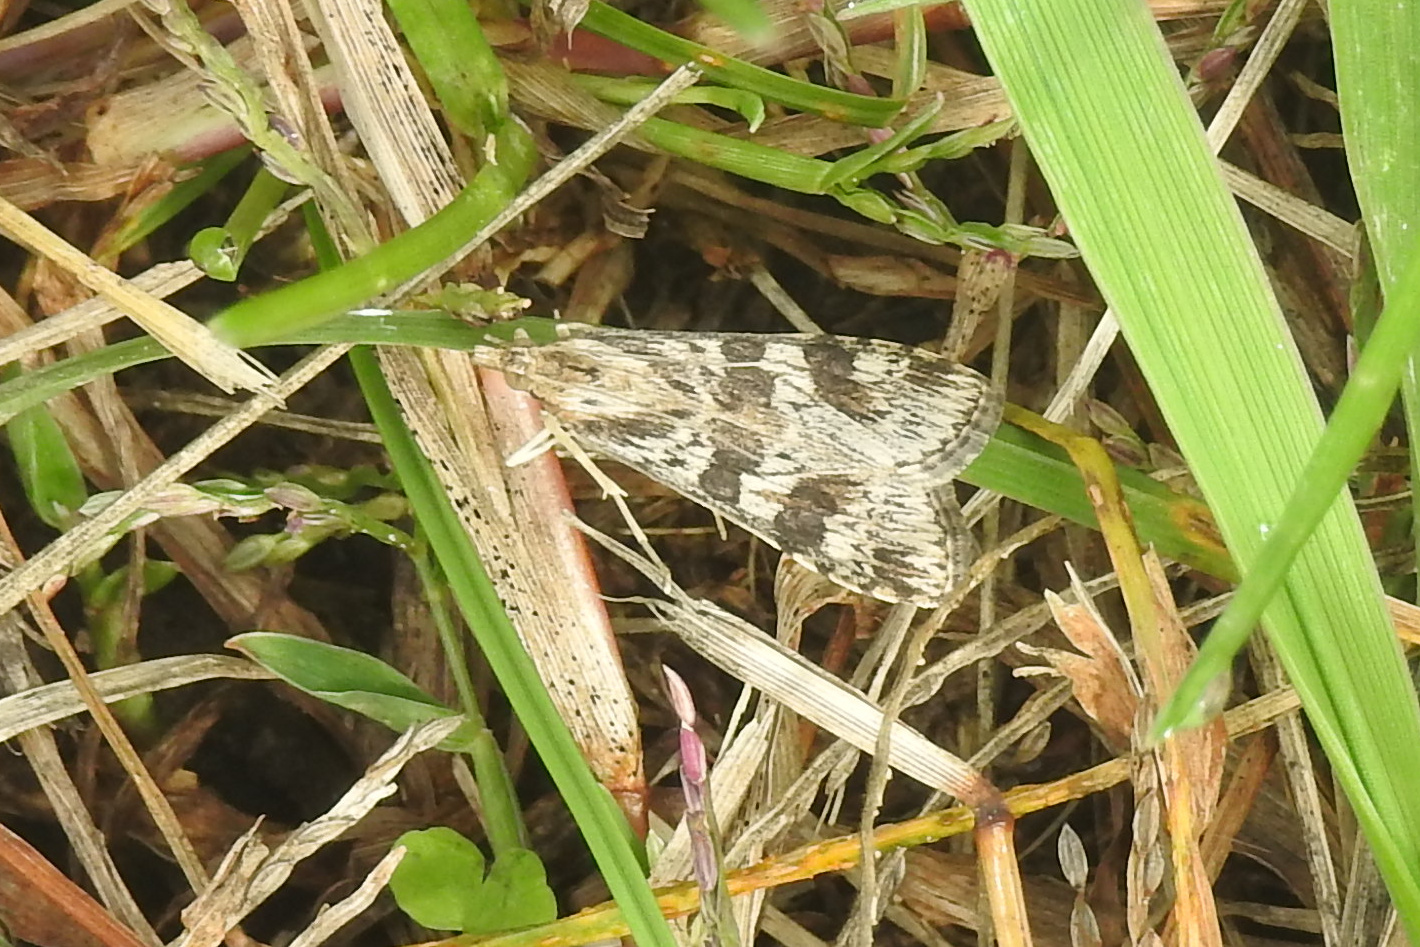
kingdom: Animalia
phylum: Arthropoda
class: Insecta
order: Lepidoptera
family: Crambidae
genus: Nomophila
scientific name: Nomophila nearctica
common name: American rush veneer
